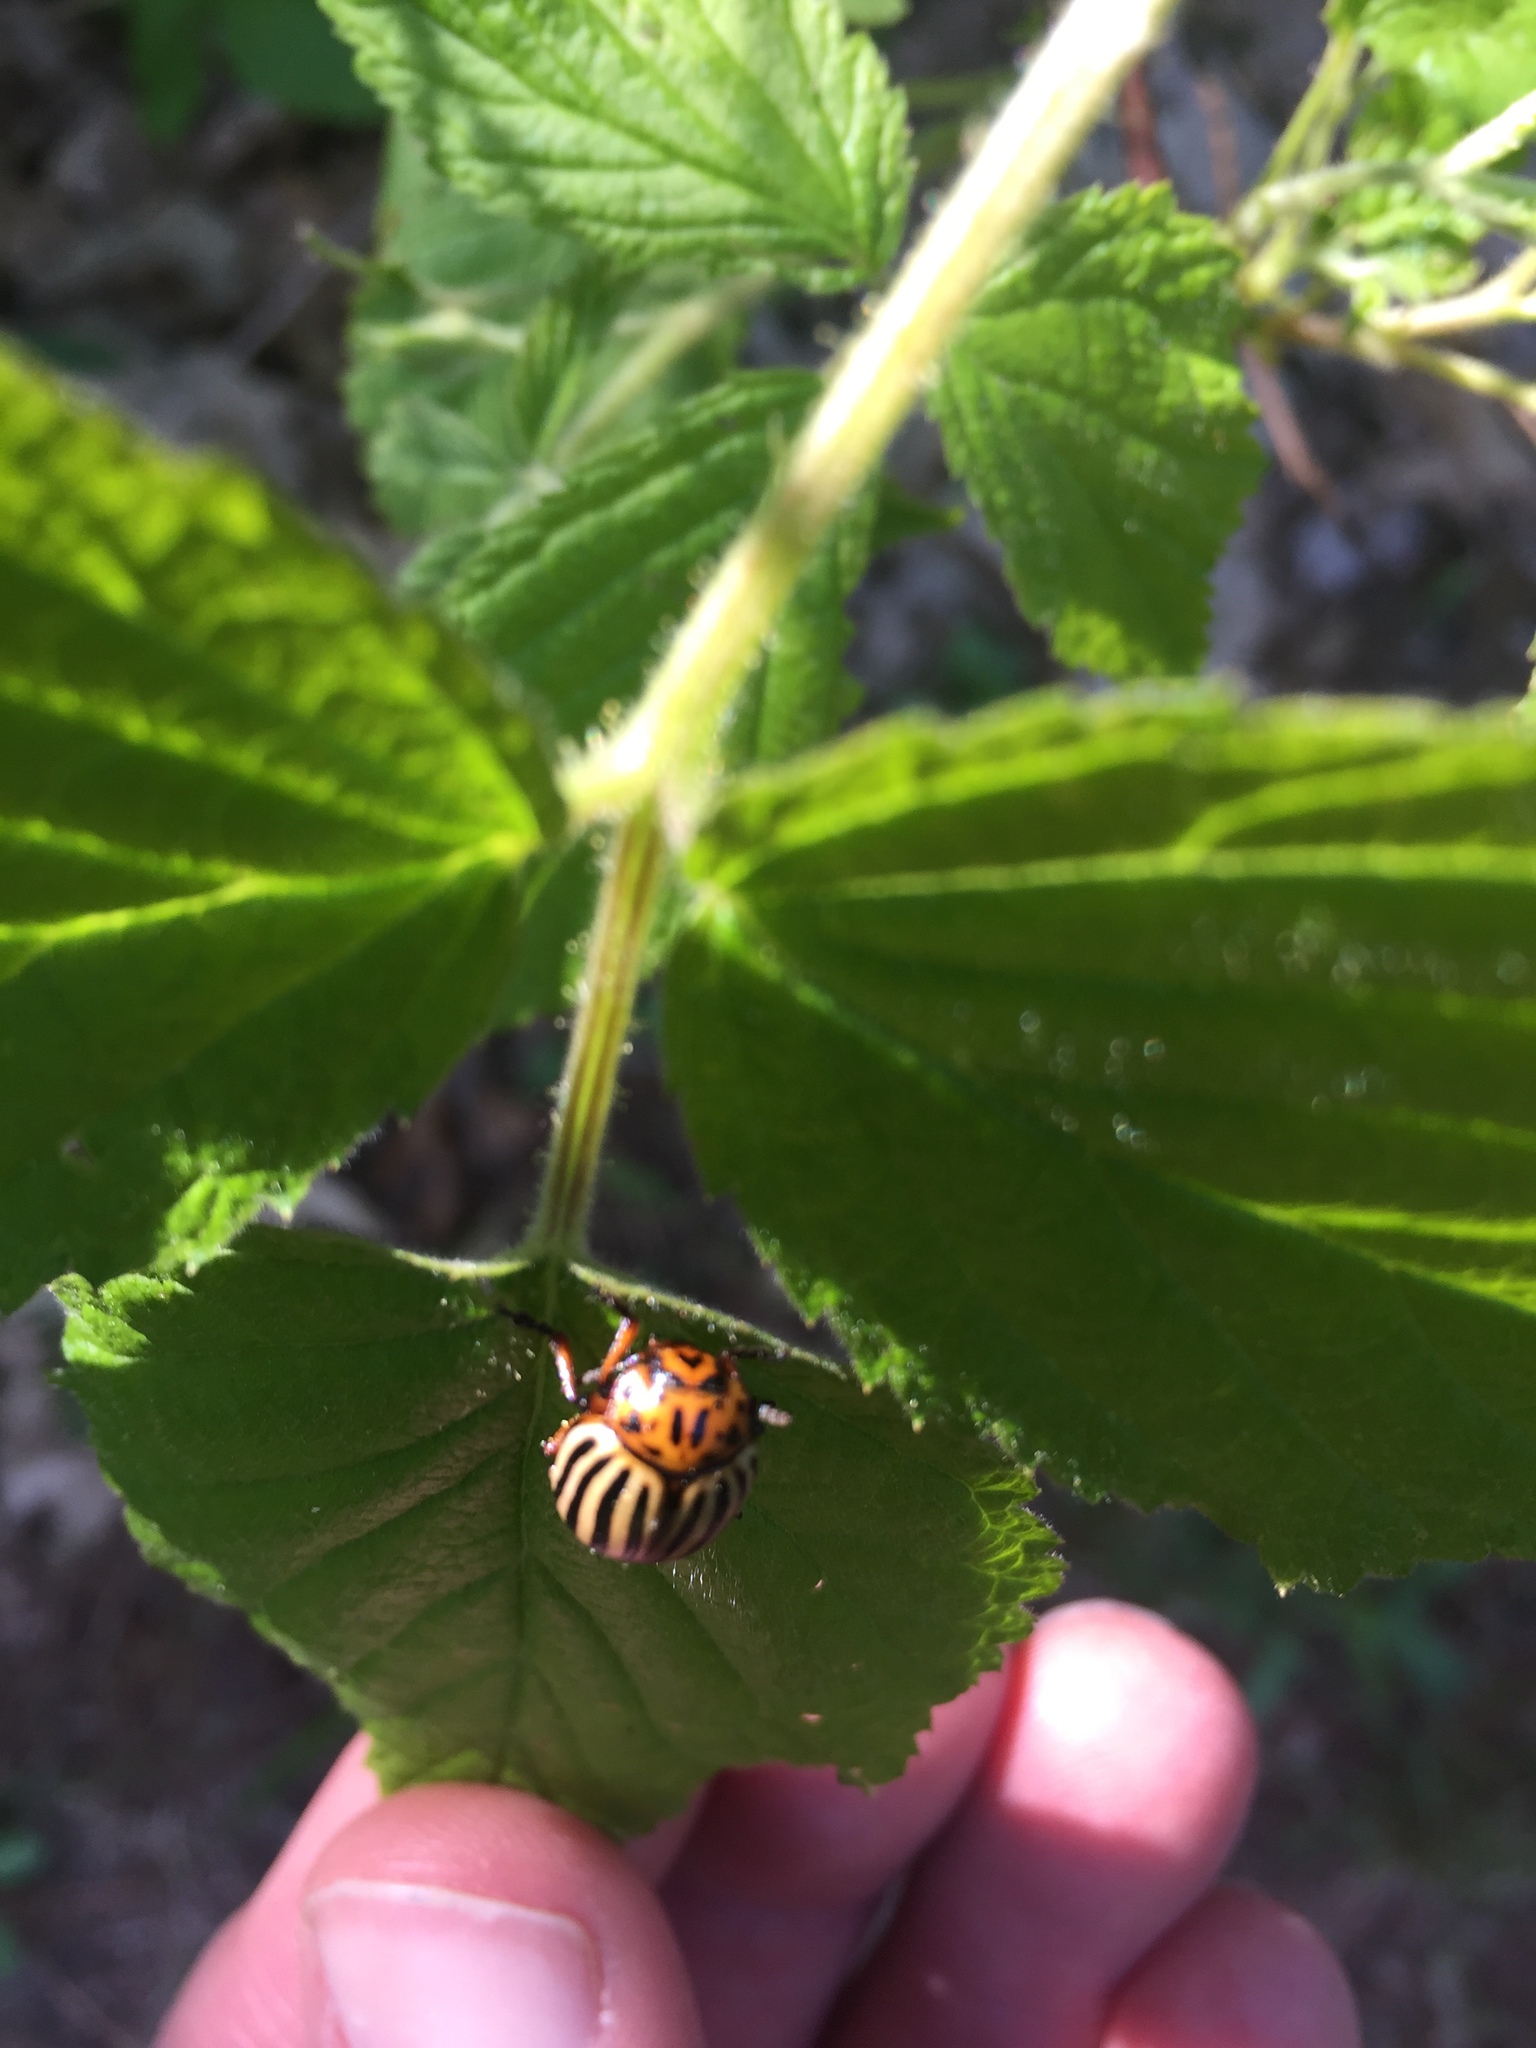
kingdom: Animalia
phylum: Arthropoda
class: Insecta
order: Coleoptera
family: Chrysomelidae
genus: Leptinotarsa
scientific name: Leptinotarsa decemlineata
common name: Colorado potato beetle
